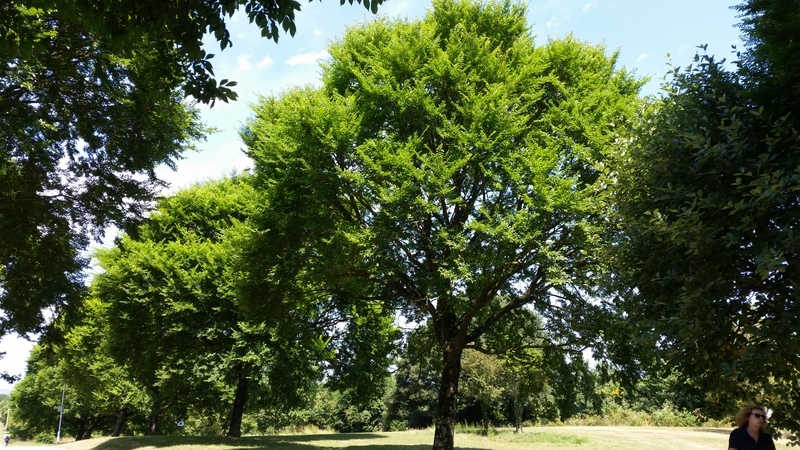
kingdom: Plantae
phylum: Tracheophyta
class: Magnoliopsida
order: Rosales
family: Ulmaceae
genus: Ulmus
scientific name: Ulmus minor
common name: Small-leaved elm
